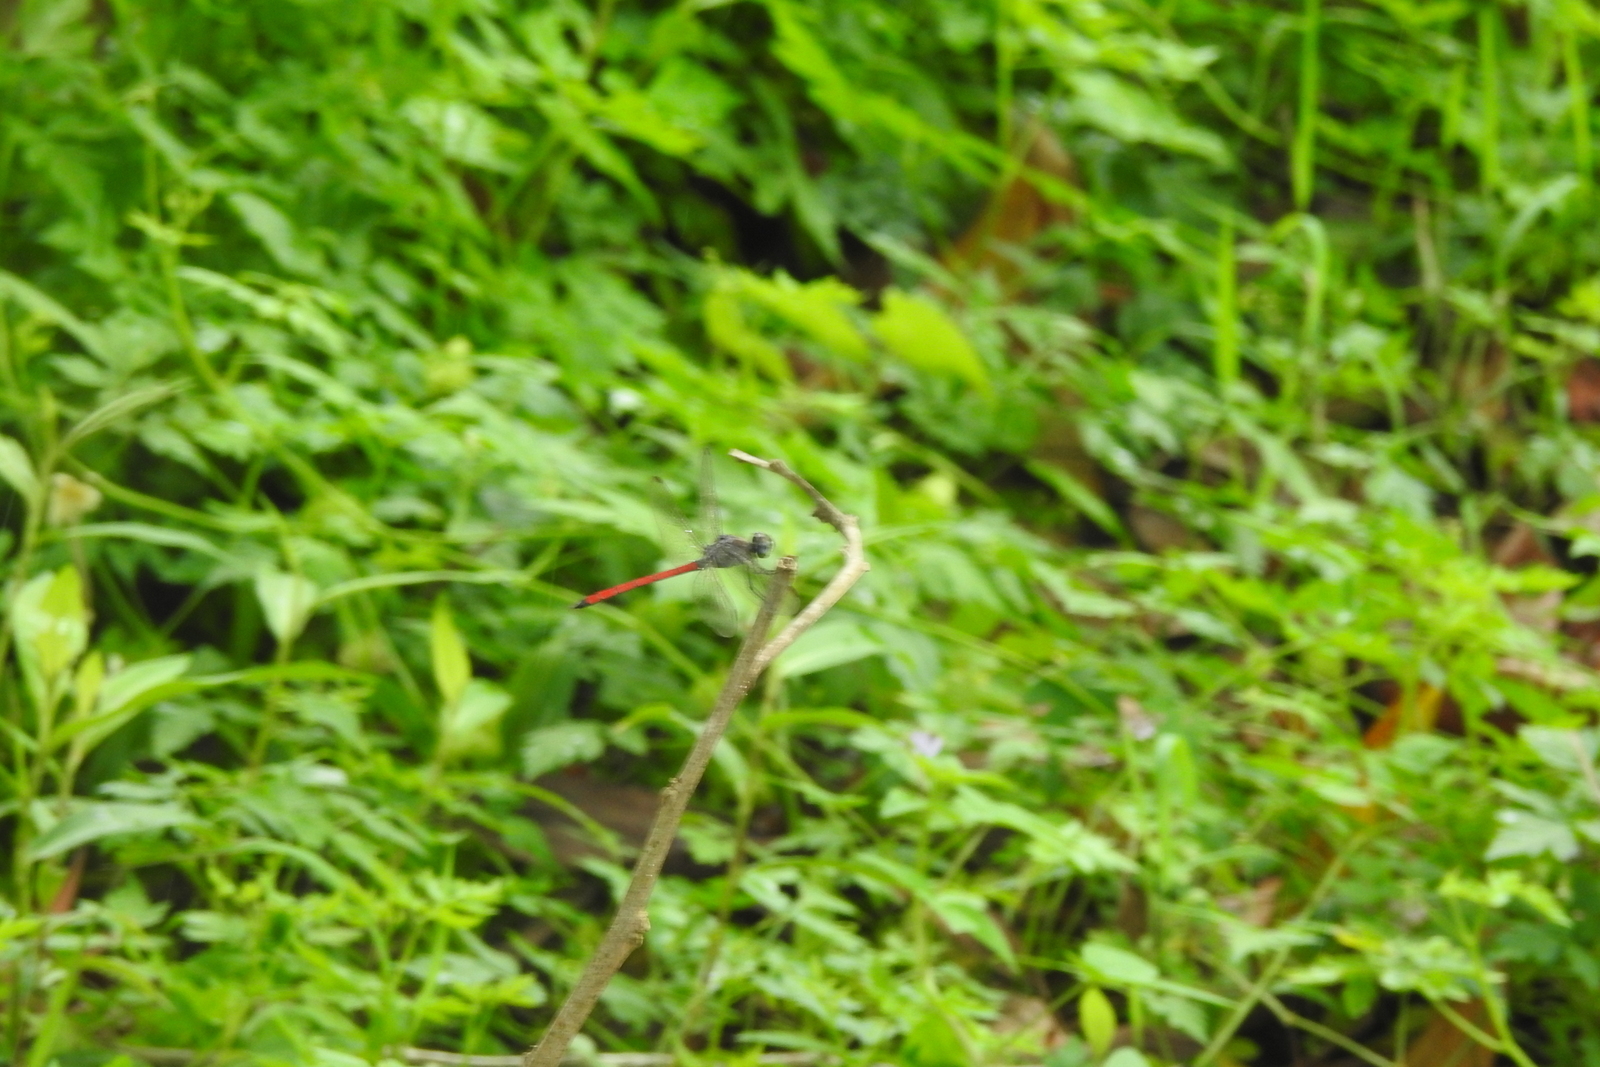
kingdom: Animalia
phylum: Arthropoda
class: Insecta
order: Odonata
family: Libellulidae
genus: Lathrecista
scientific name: Lathrecista asiatica
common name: Scarlet grenadier
